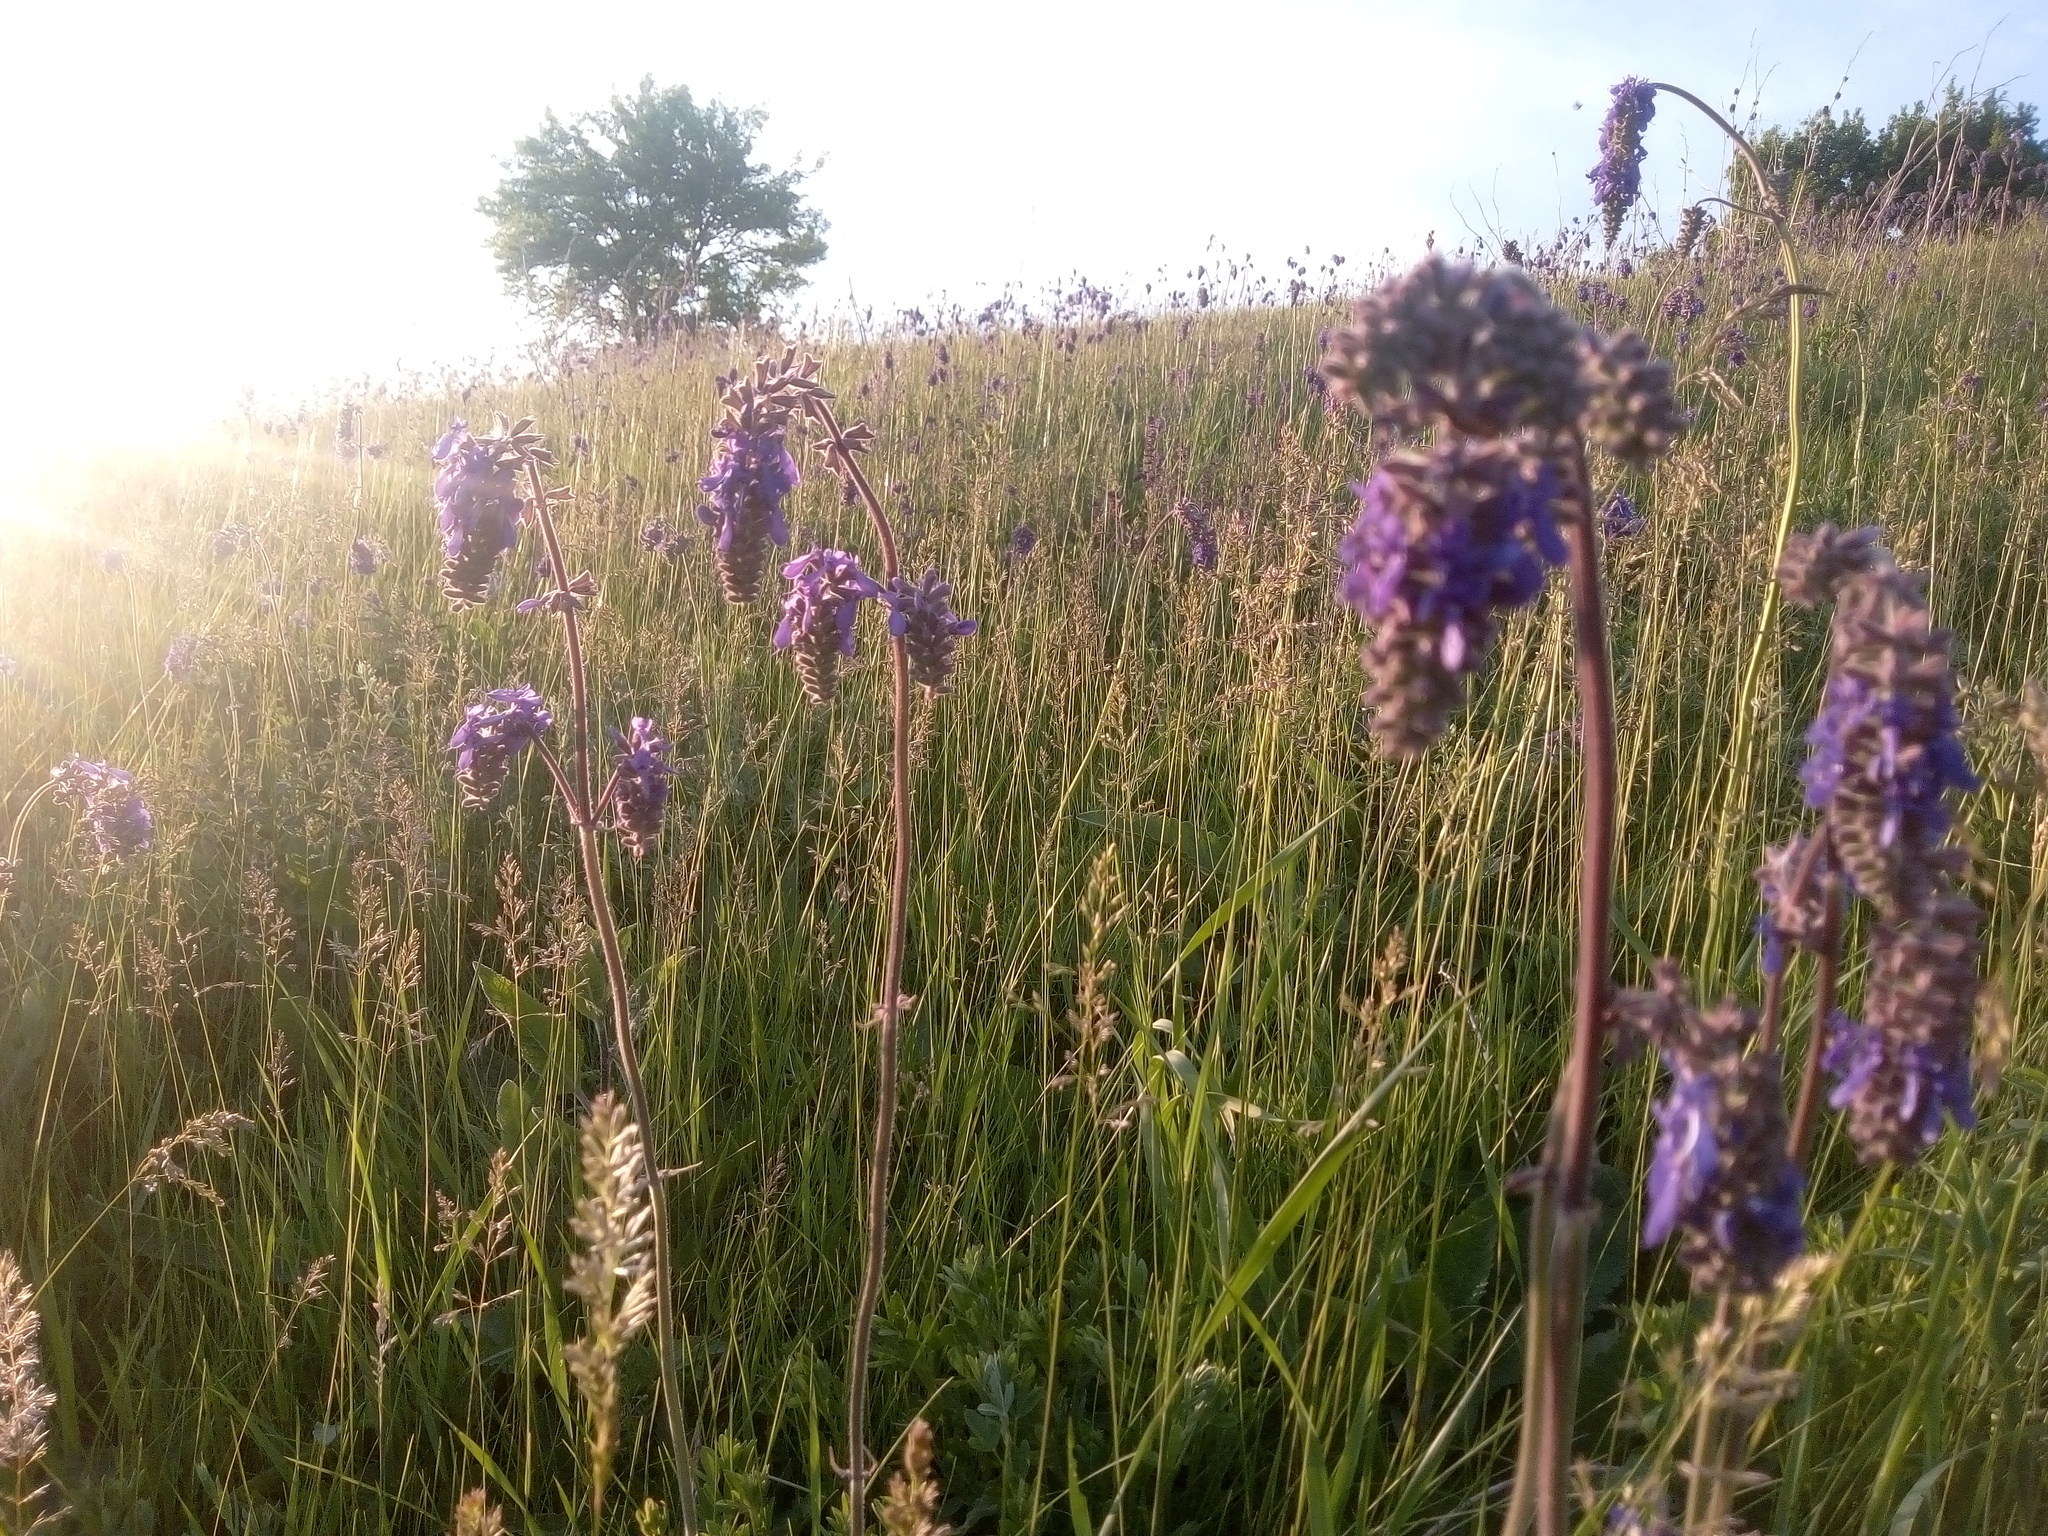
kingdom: Plantae
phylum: Tracheophyta
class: Magnoliopsida
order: Lamiales
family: Lamiaceae
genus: Salvia
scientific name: Salvia nutans
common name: Nodding sage
